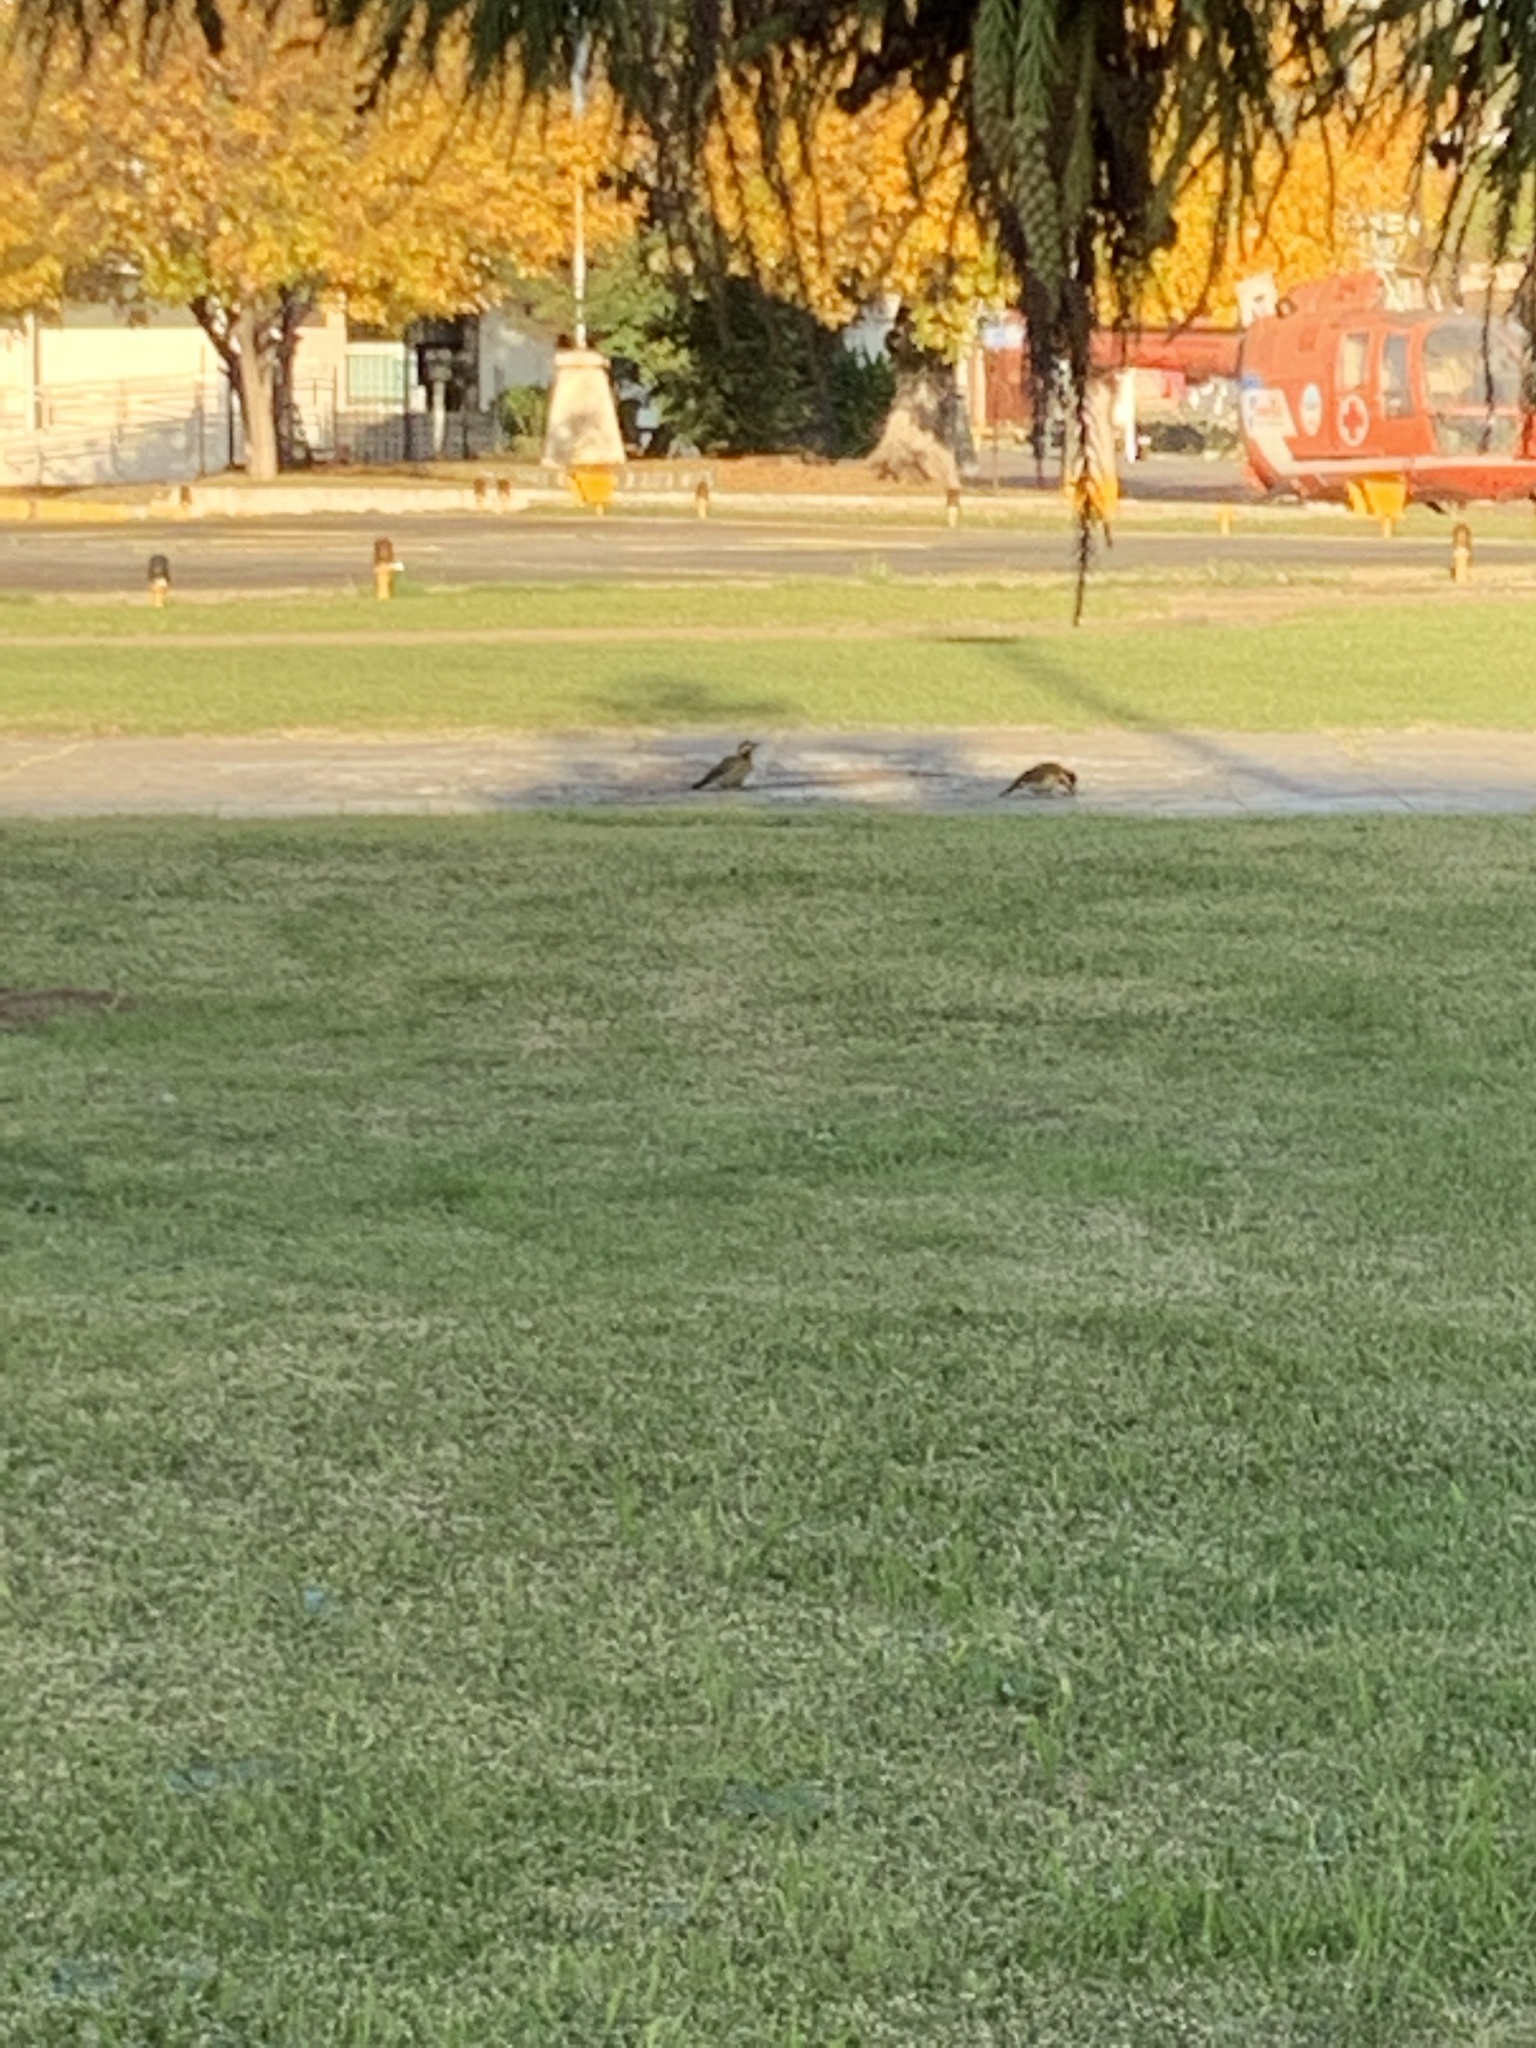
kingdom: Animalia
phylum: Chordata
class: Aves
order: Piciformes
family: Picidae
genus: Colaptes
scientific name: Colaptes melanochloros
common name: Green-barred woodpecker
